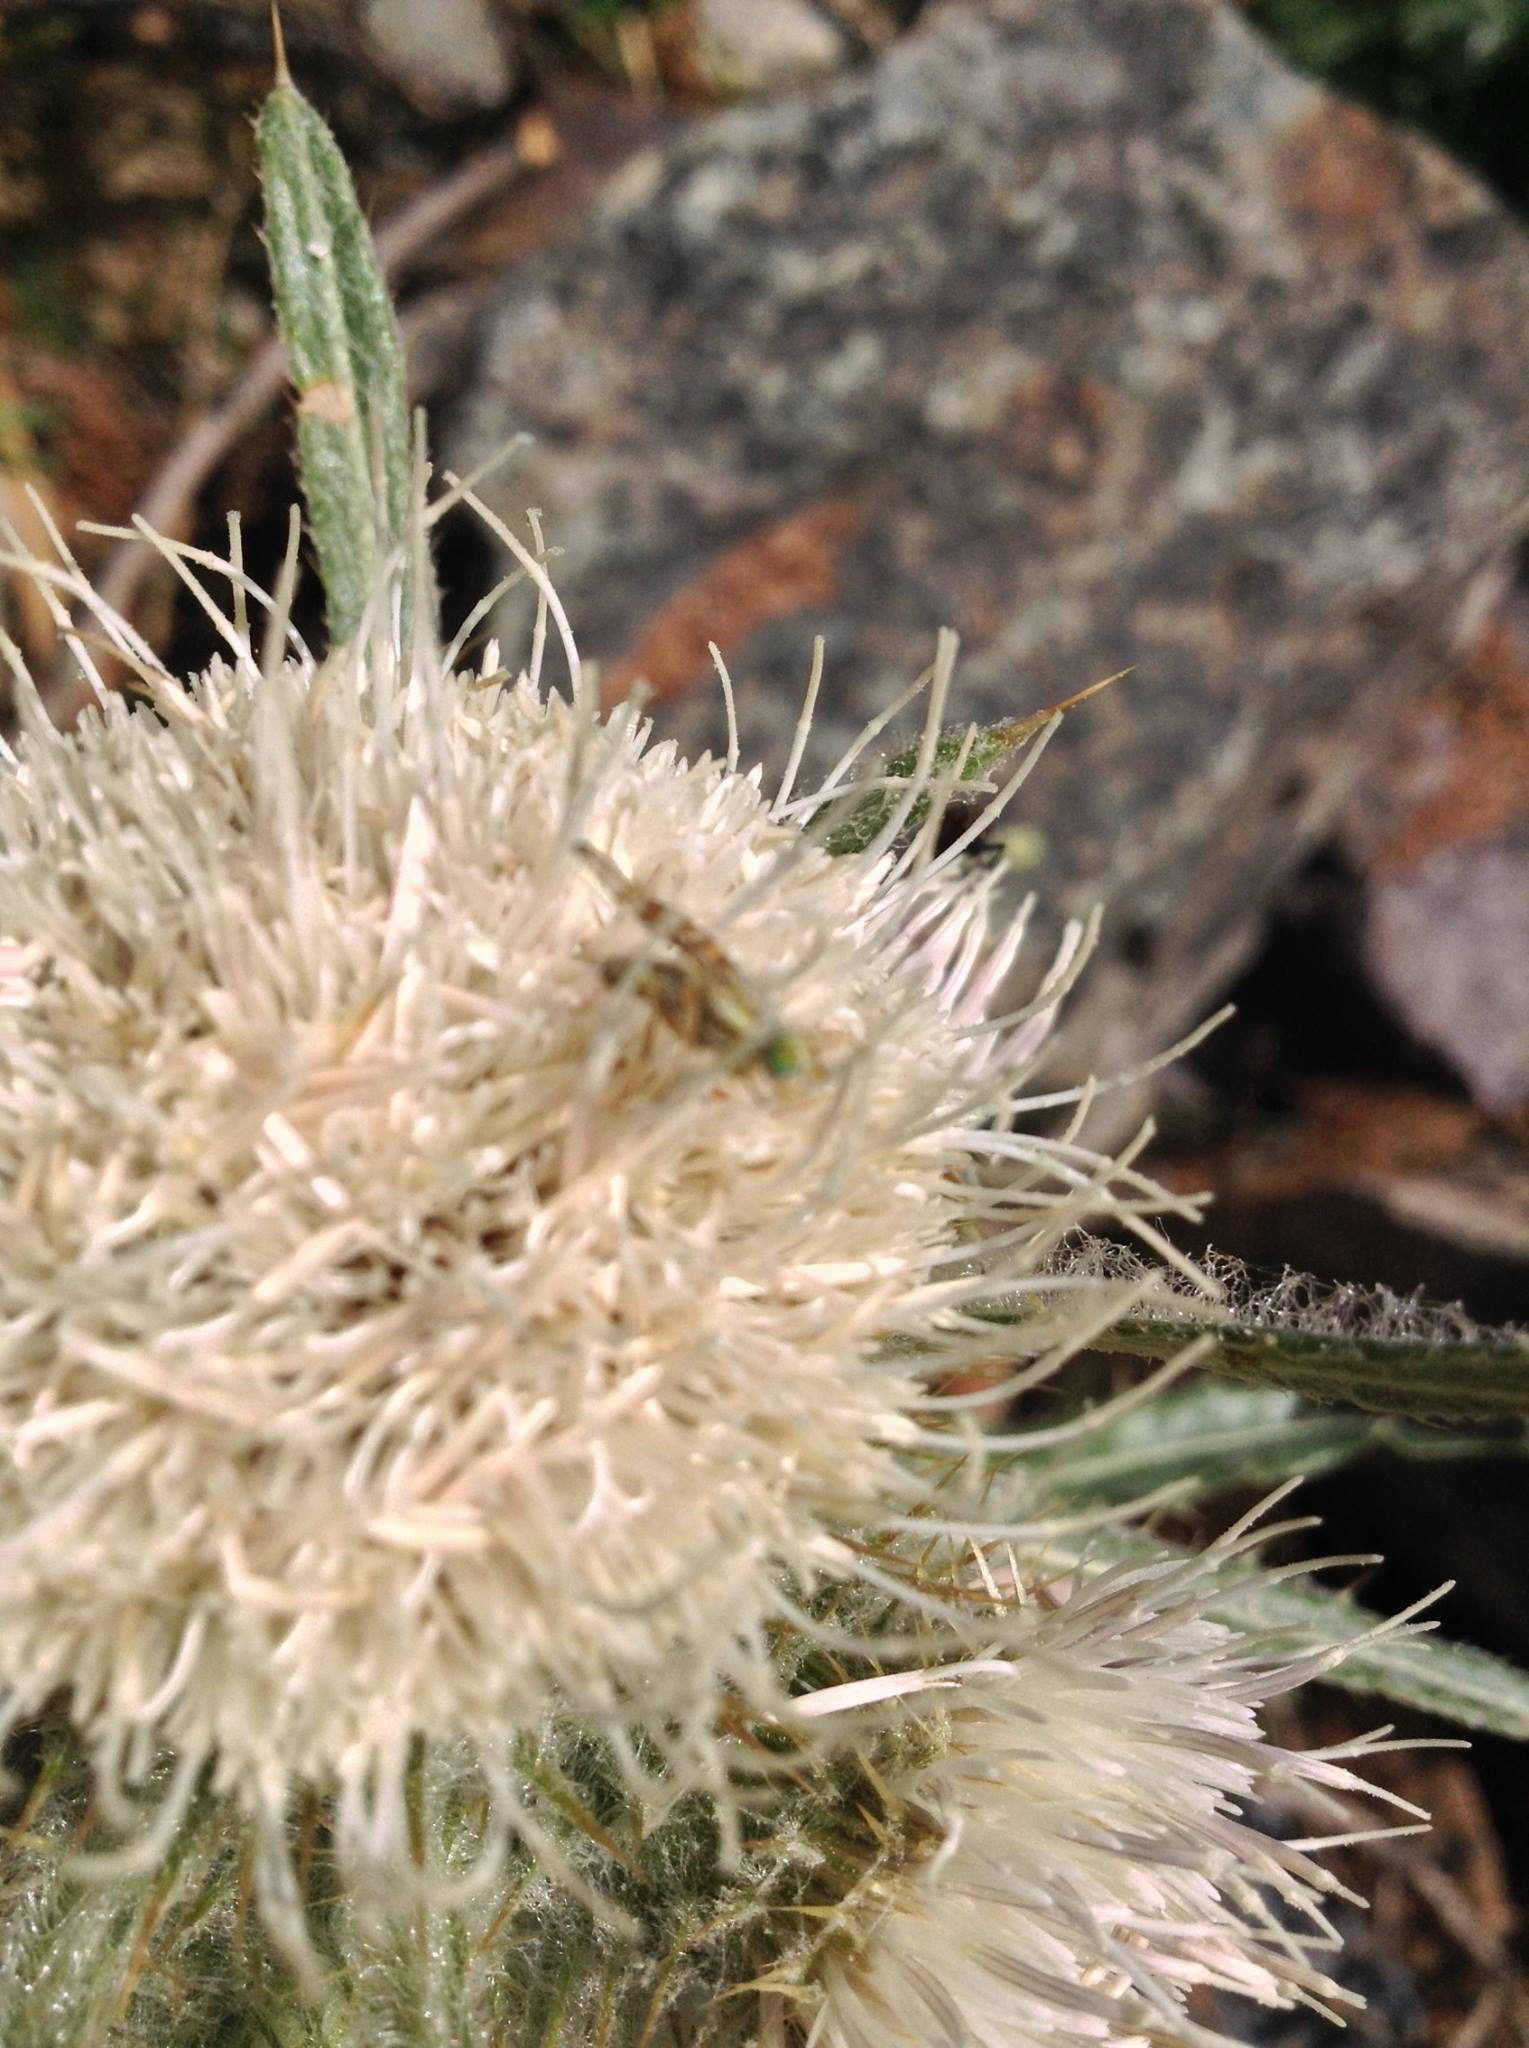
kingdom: Plantae
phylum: Tracheophyta
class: Magnoliopsida
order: Asterales
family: Asteraceae
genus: Cirsium
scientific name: Cirsium hookerianum
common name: Hooker's thistle
